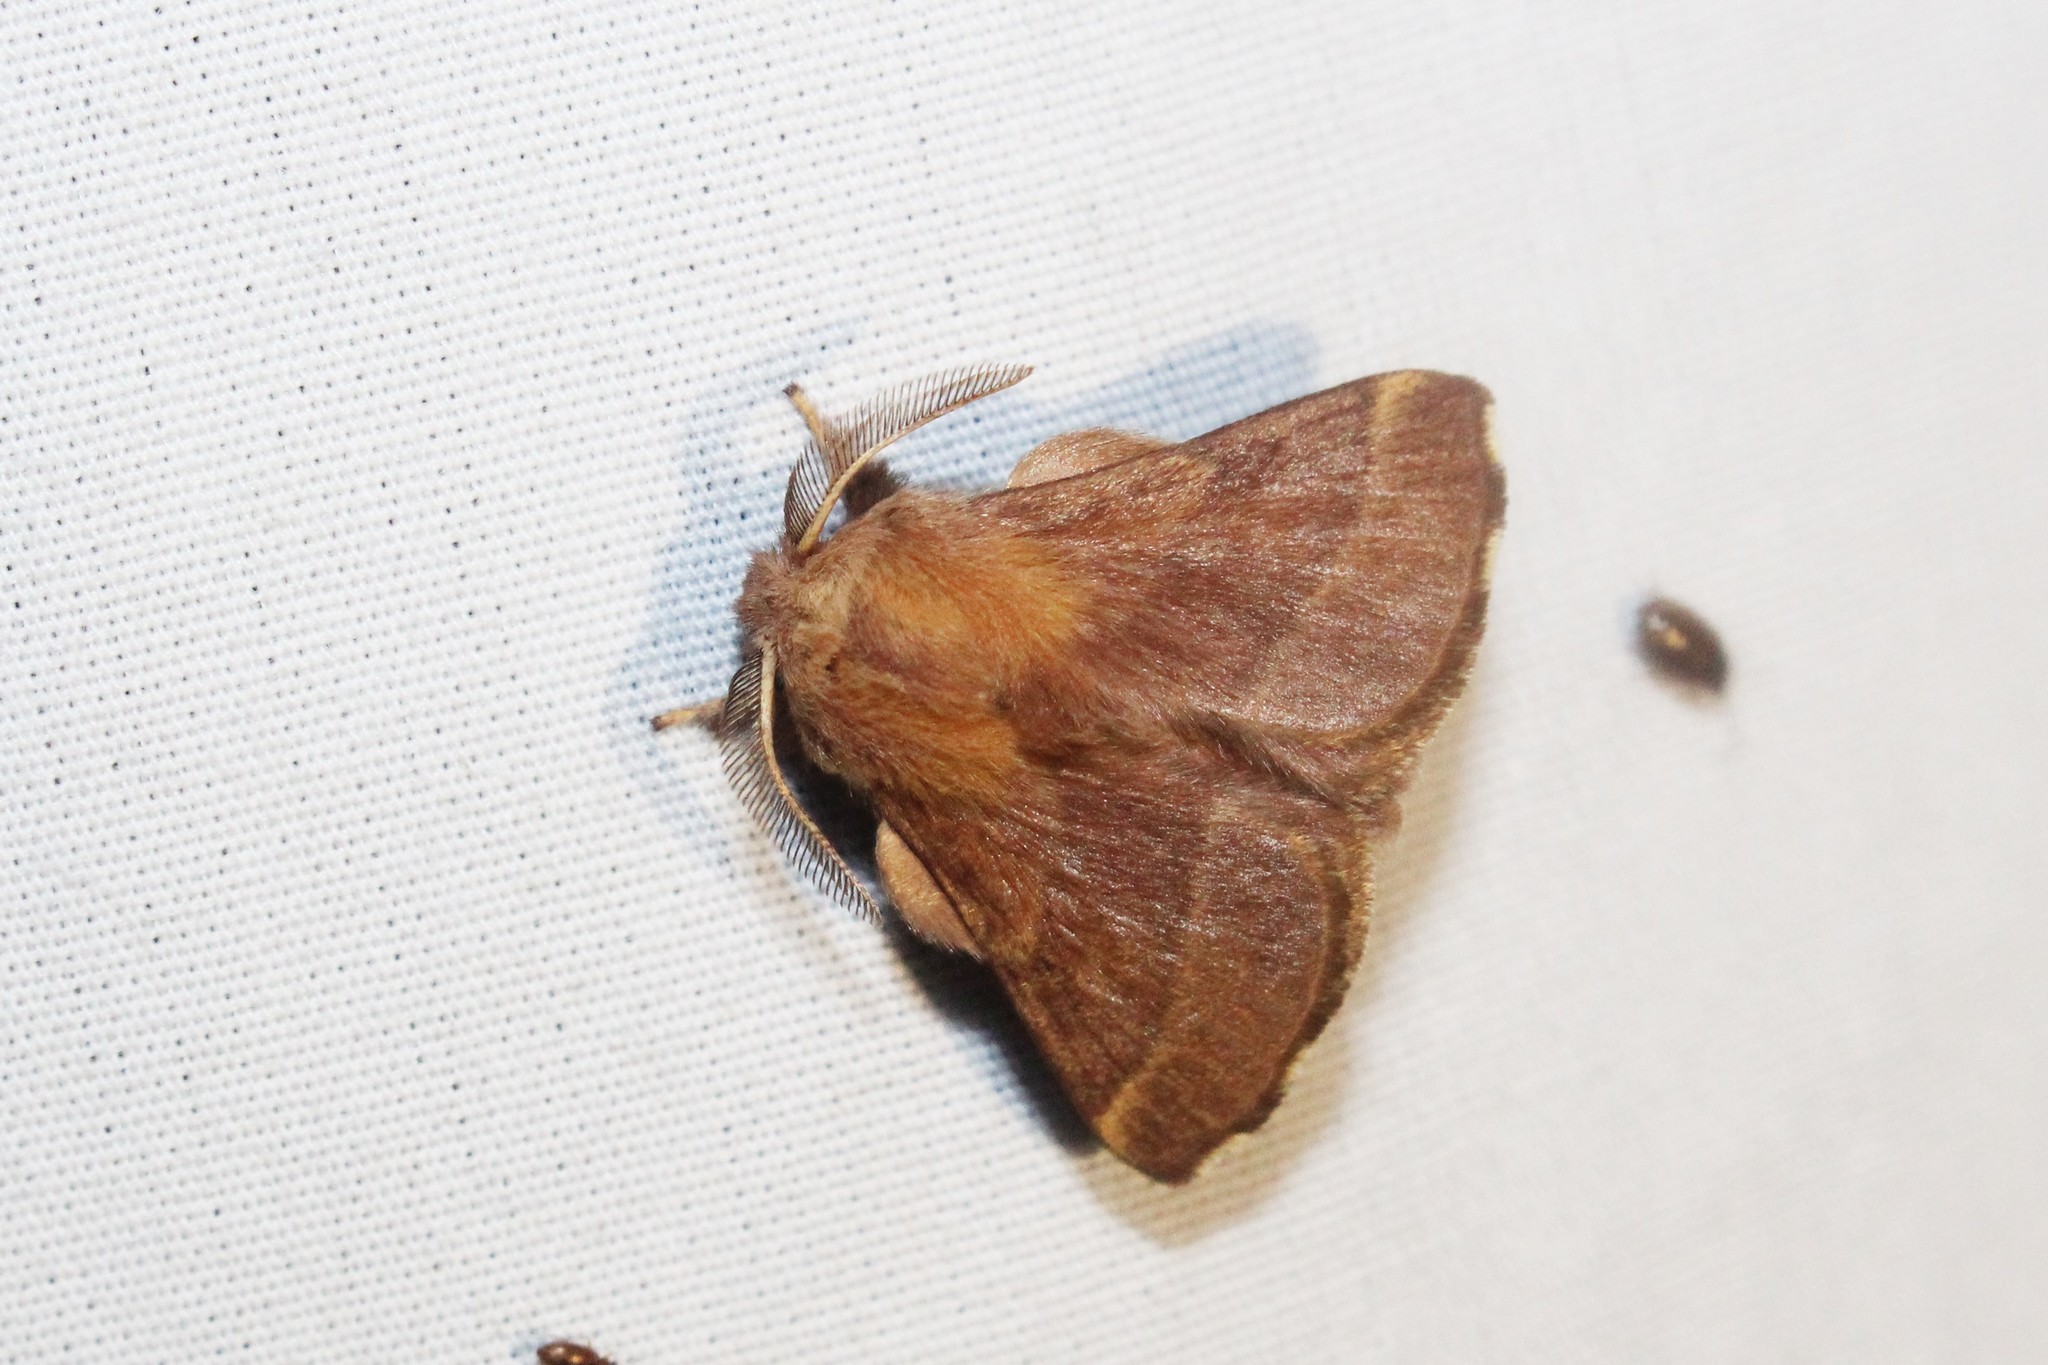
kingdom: Animalia
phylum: Arthropoda
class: Insecta
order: Lepidoptera
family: Lasiocampidae
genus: Malacosoma
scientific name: Malacosoma disstria
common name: Forest tent caterpillar
